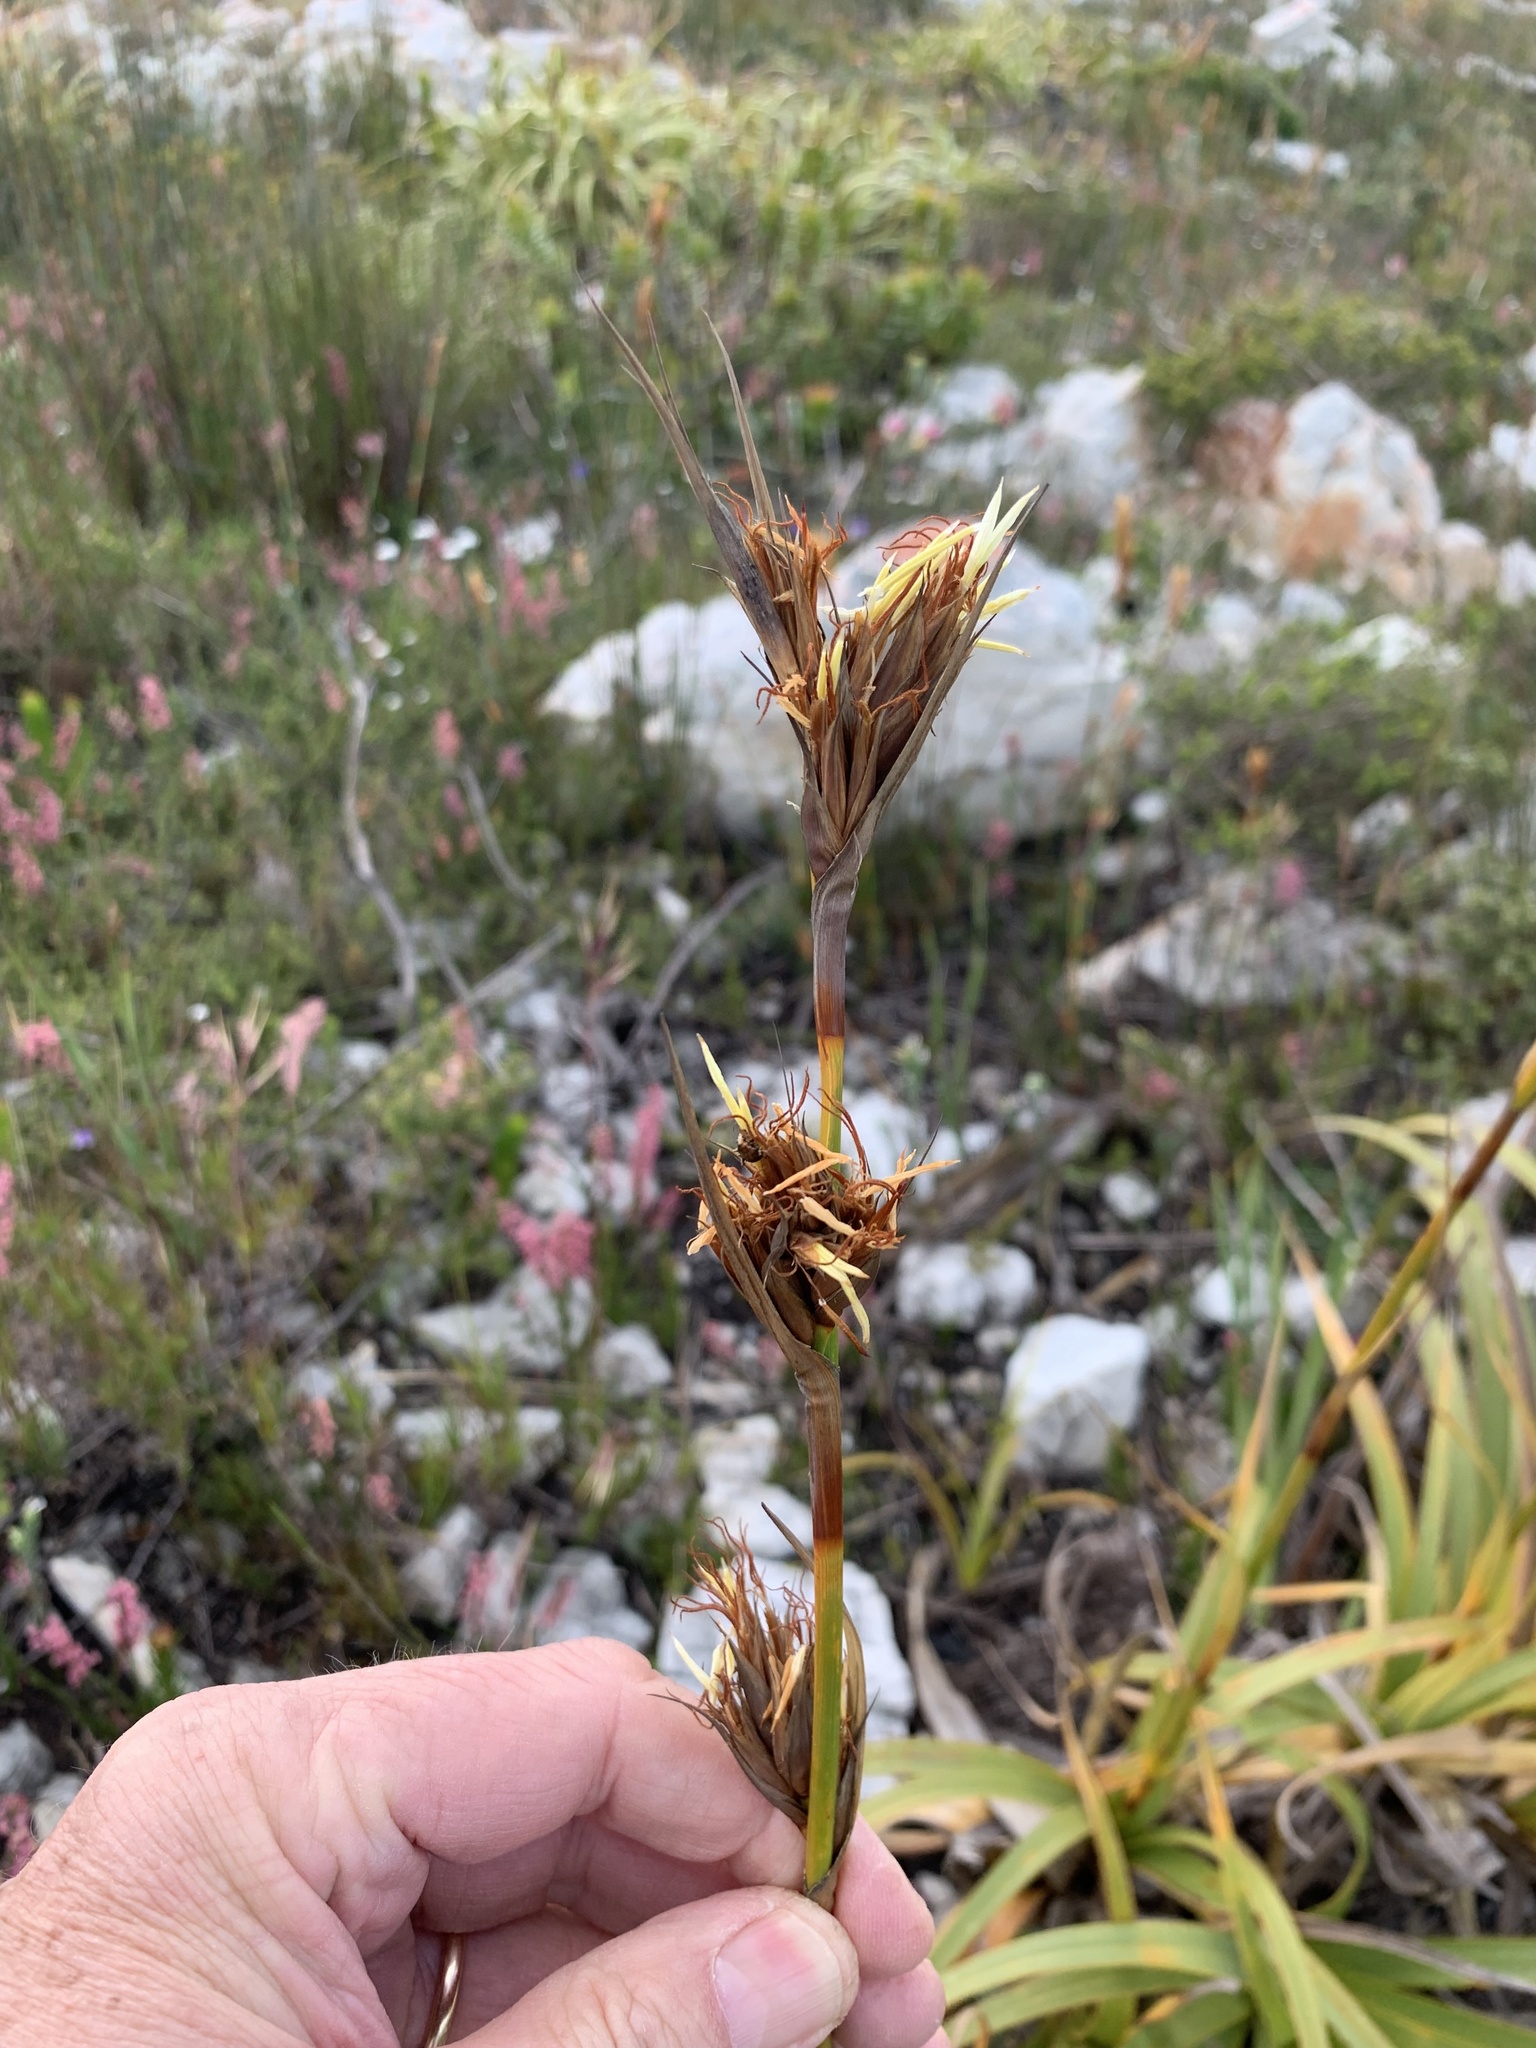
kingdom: Plantae
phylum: Tracheophyta
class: Liliopsida
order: Poales
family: Cyperaceae
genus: Tetraria
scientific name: Tetraria thermalis
